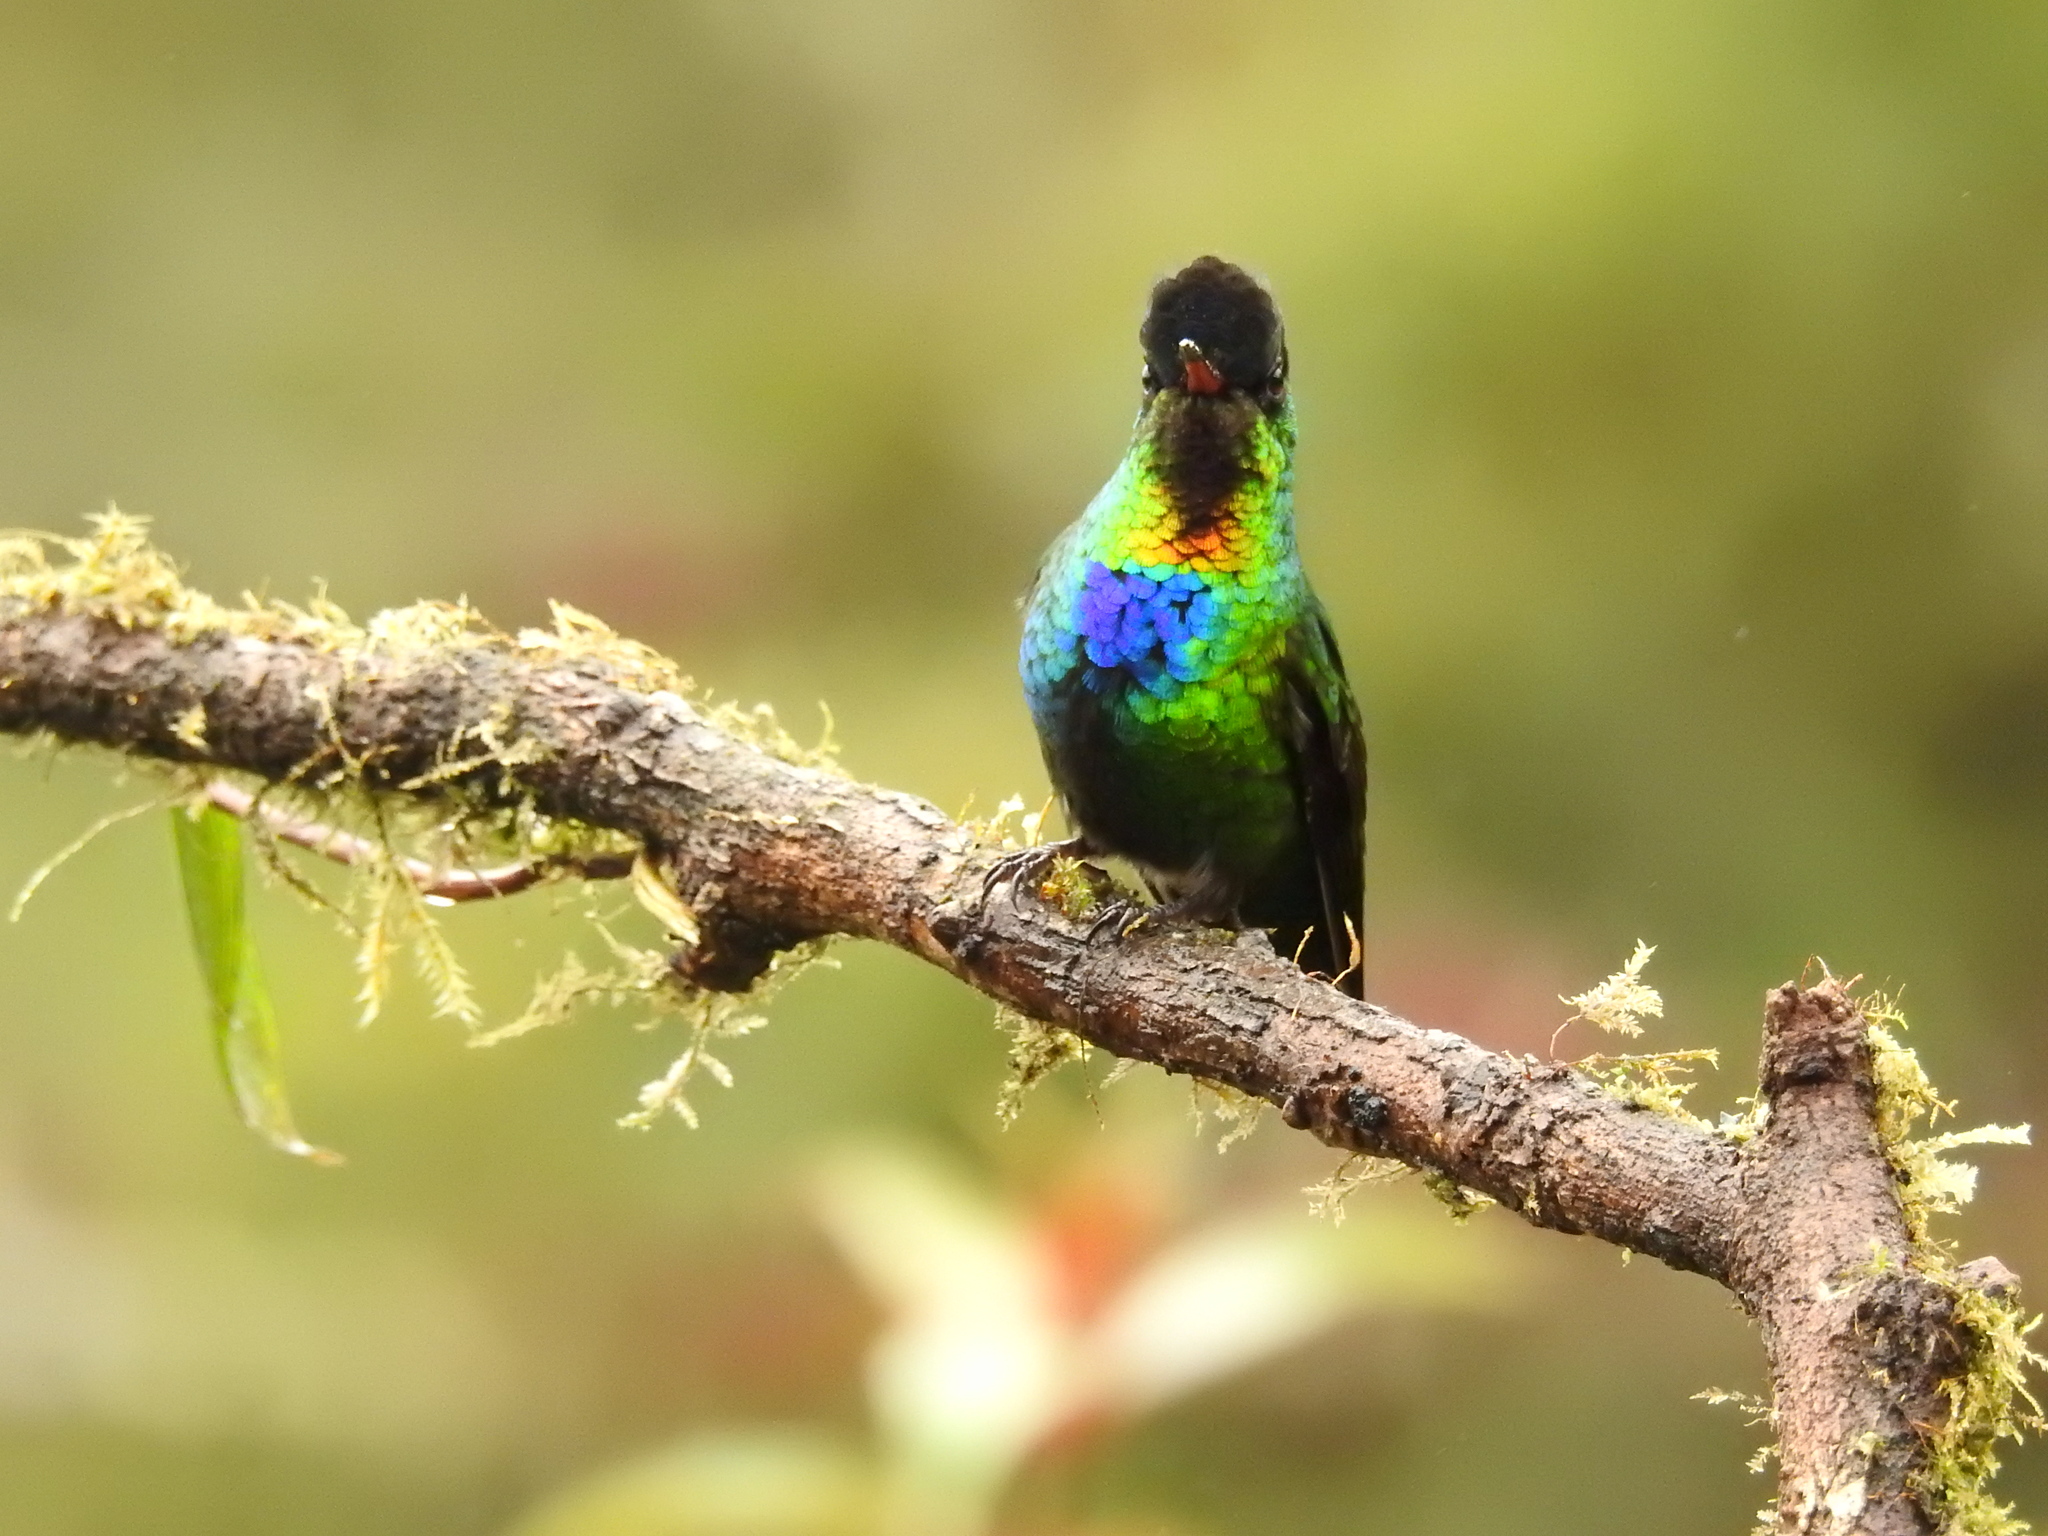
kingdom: Animalia
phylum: Chordata
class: Aves
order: Apodiformes
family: Trochilidae
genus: Panterpe
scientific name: Panterpe insignis
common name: Fiery-throated hummingbird
